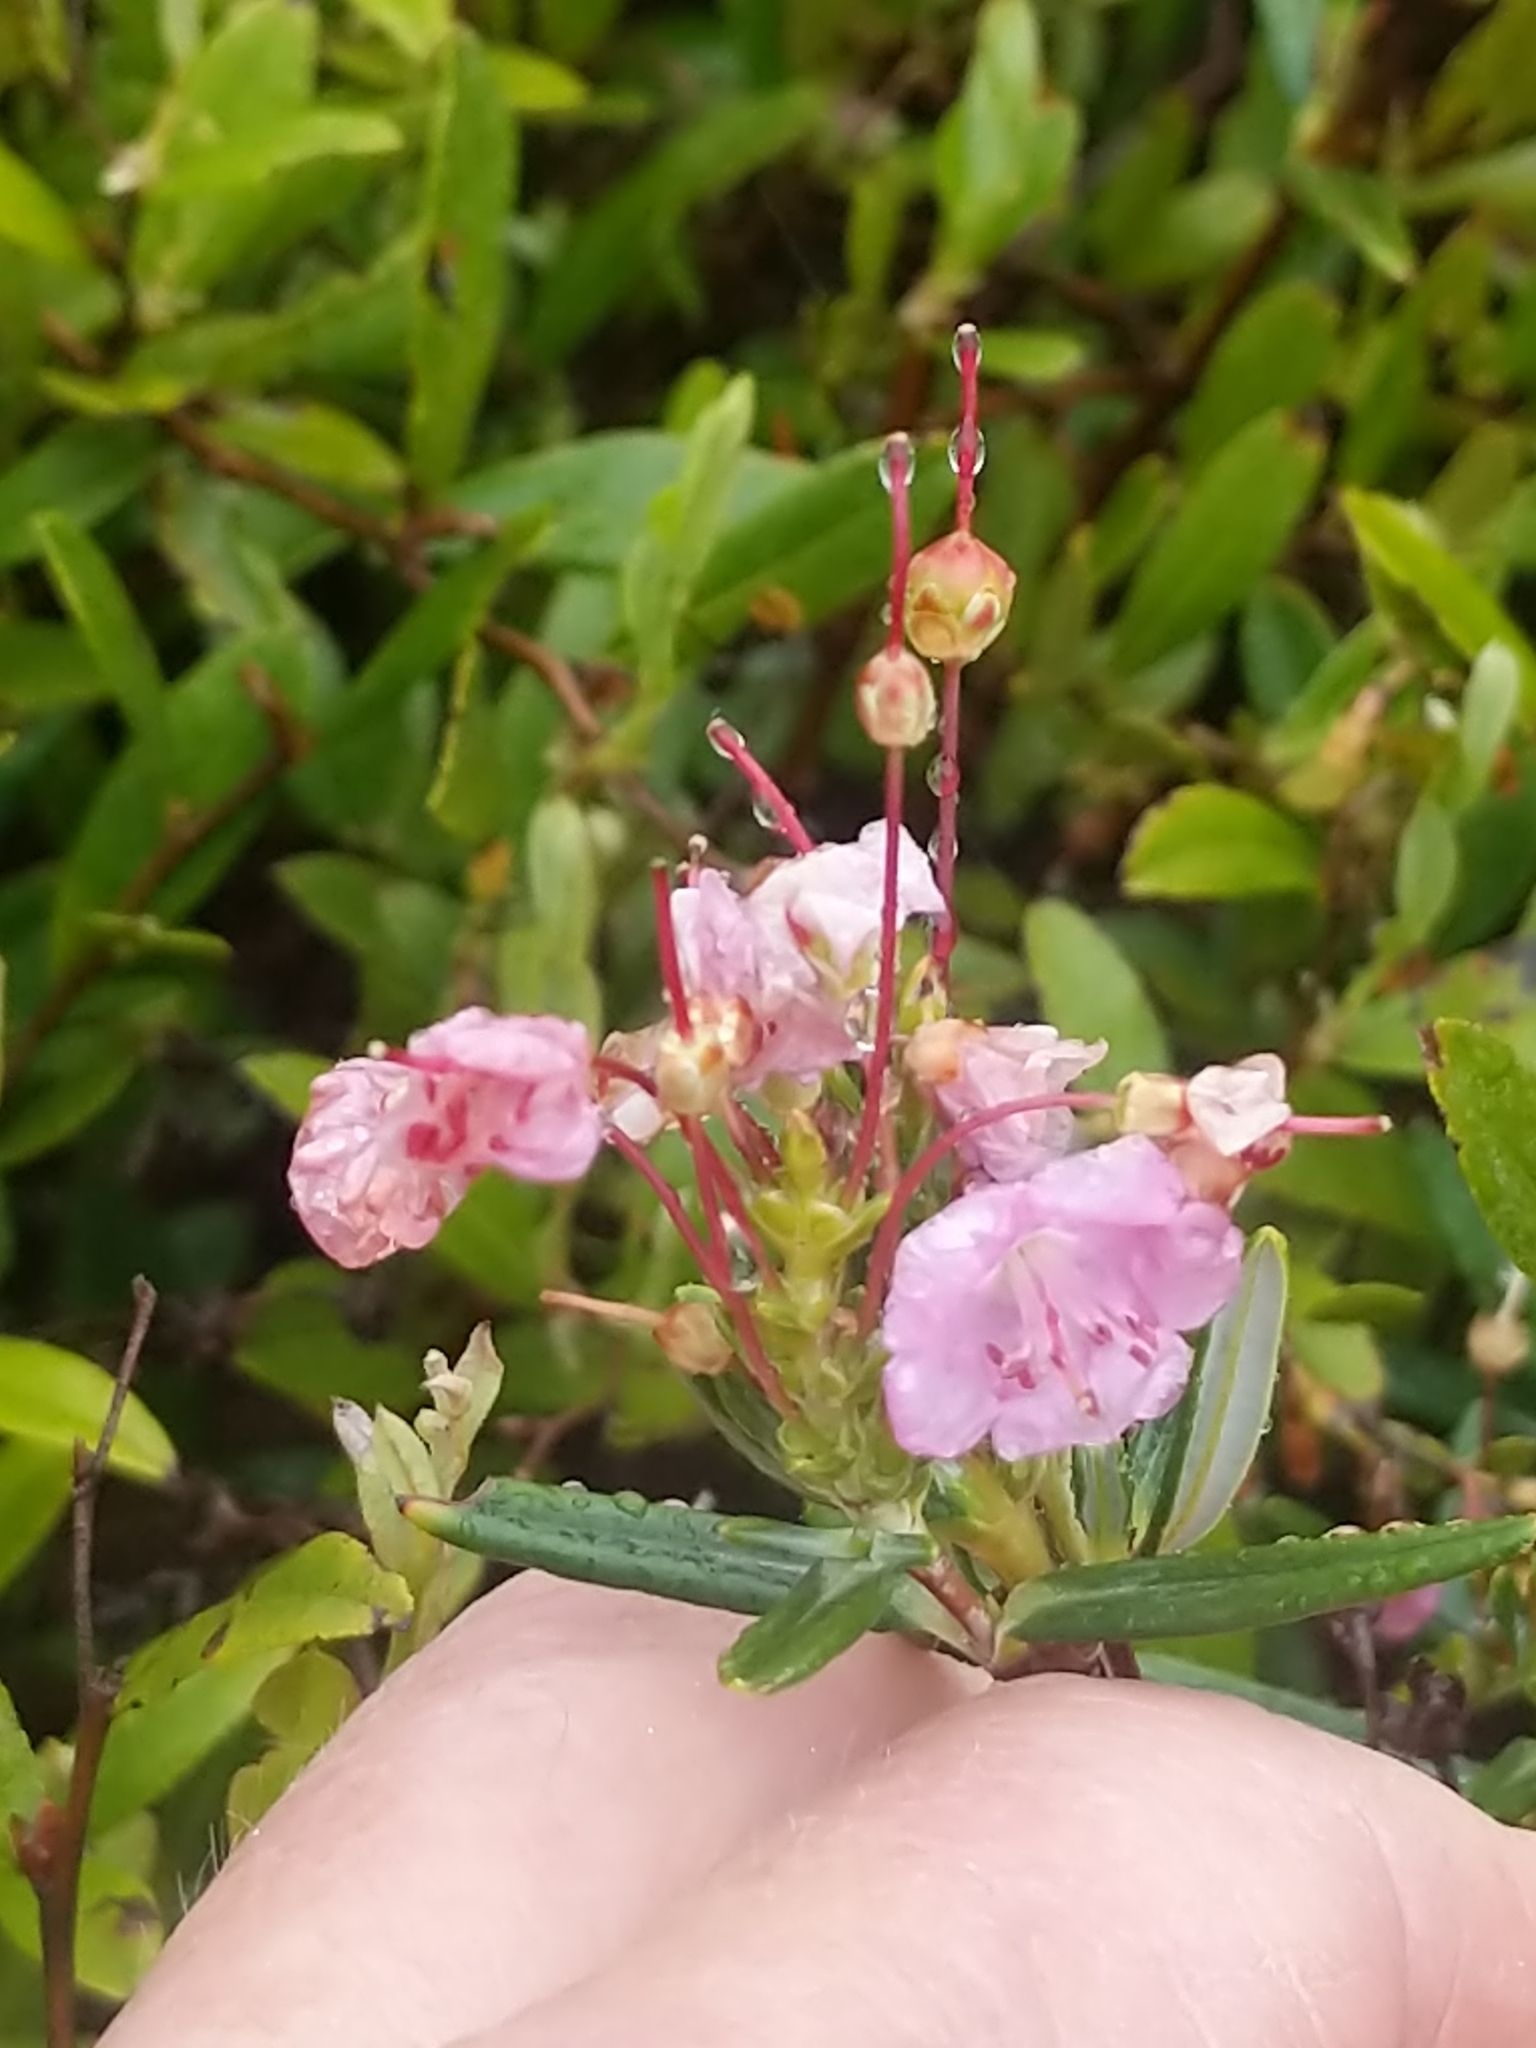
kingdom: Plantae
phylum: Tracheophyta
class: Magnoliopsida
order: Ericales
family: Ericaceae
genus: Kalmia
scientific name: Kalmia polifolia
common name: Bog-laurel
